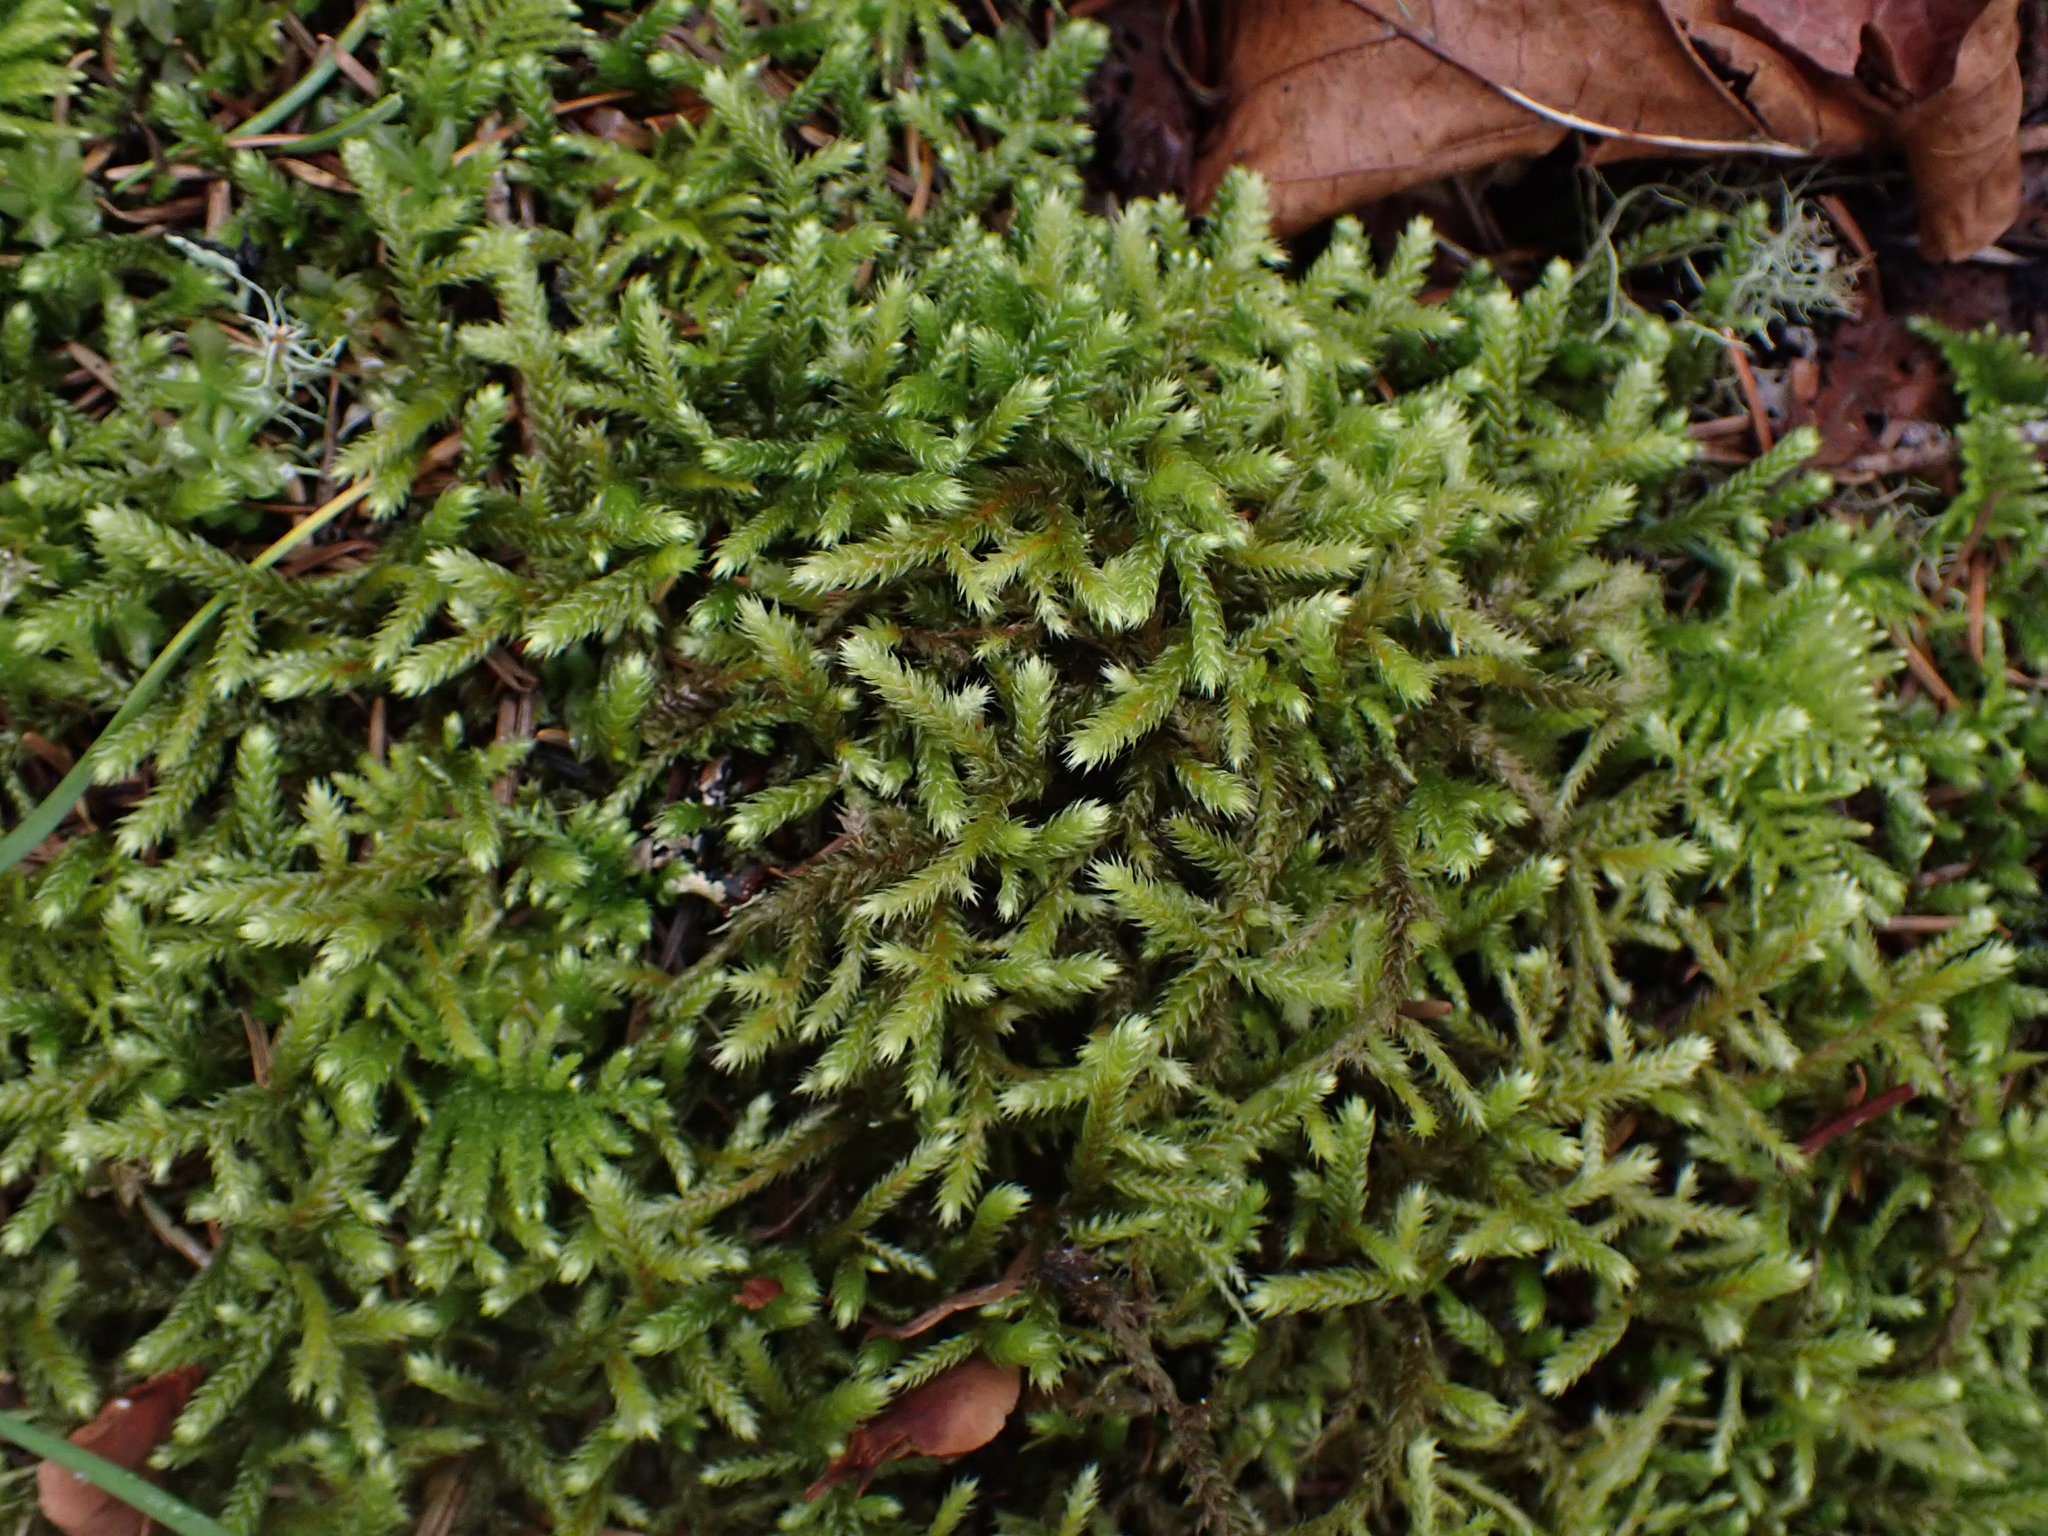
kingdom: Plantae
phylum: Bryophyta
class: Bryopsida
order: Hypnales
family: Antitrichiaceae
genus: Antitrichia
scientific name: Antitrichia curtipendula
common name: Pendulous wing-moss
